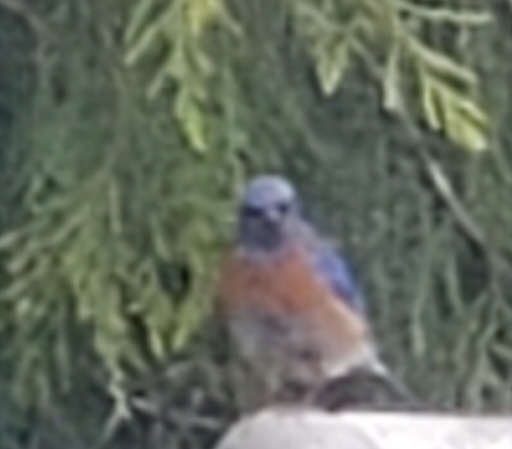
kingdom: Animalia
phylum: Chordata
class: Aves
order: Passeriformes
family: Turdidae
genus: Sialia
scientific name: Sialia mexicana
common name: Western bluebird
